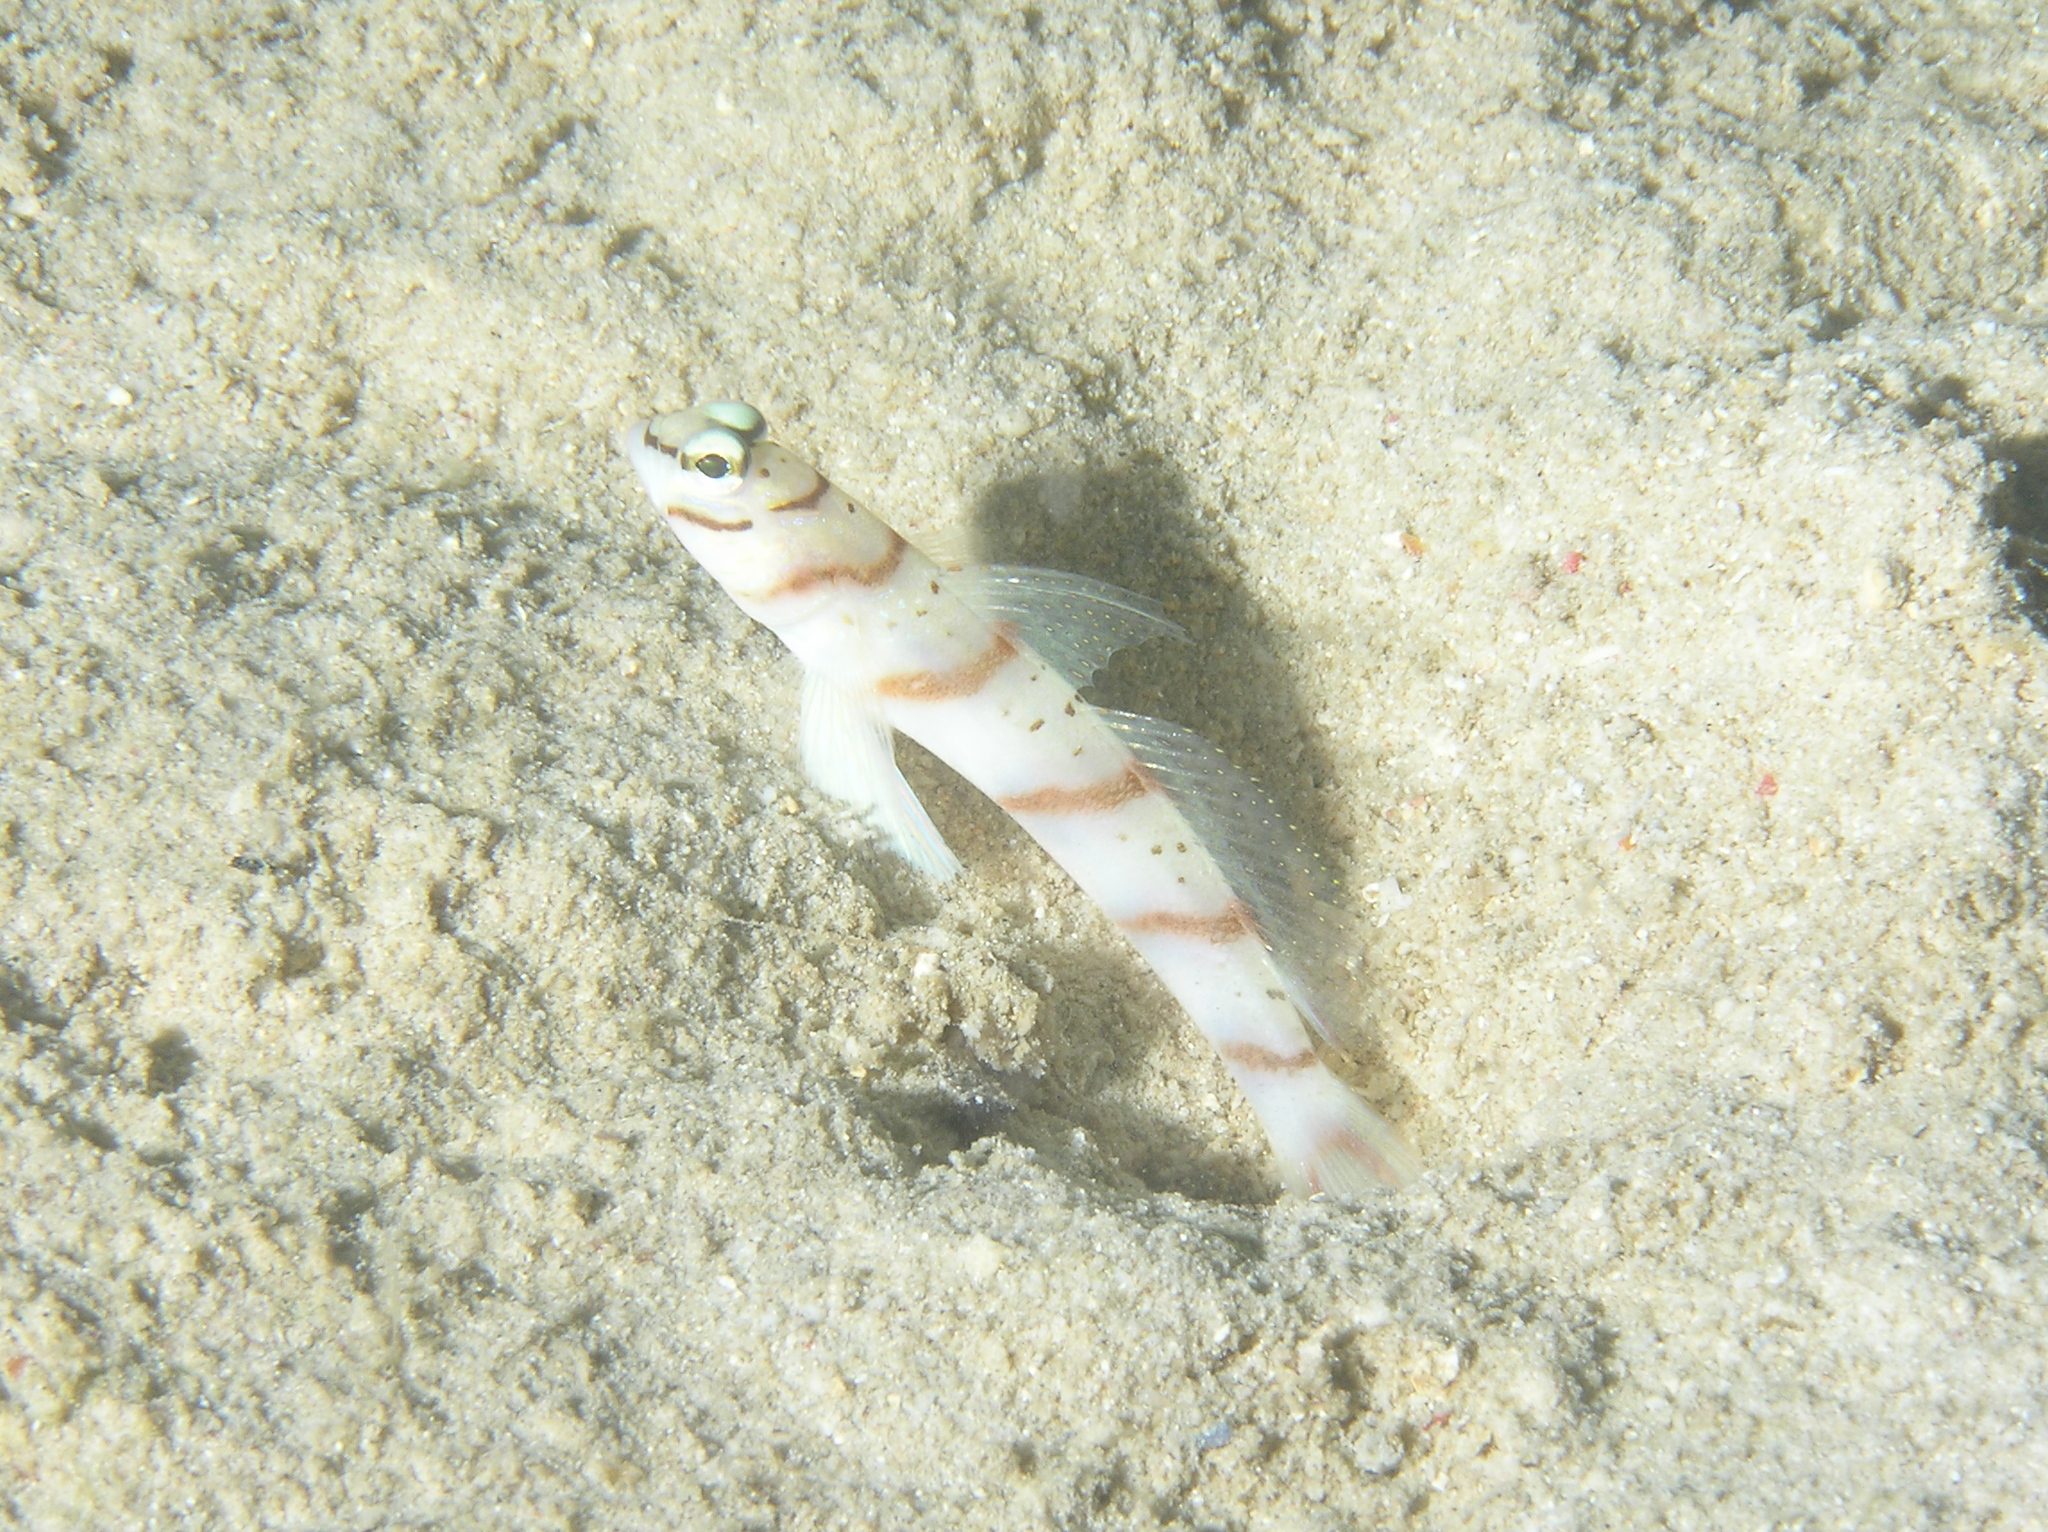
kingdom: Animalia
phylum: Chordata
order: Perciformes
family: Gobiidae
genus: Amblyeleotris
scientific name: Amblyeleotris diagonalis
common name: Diagonal shrimp goby
